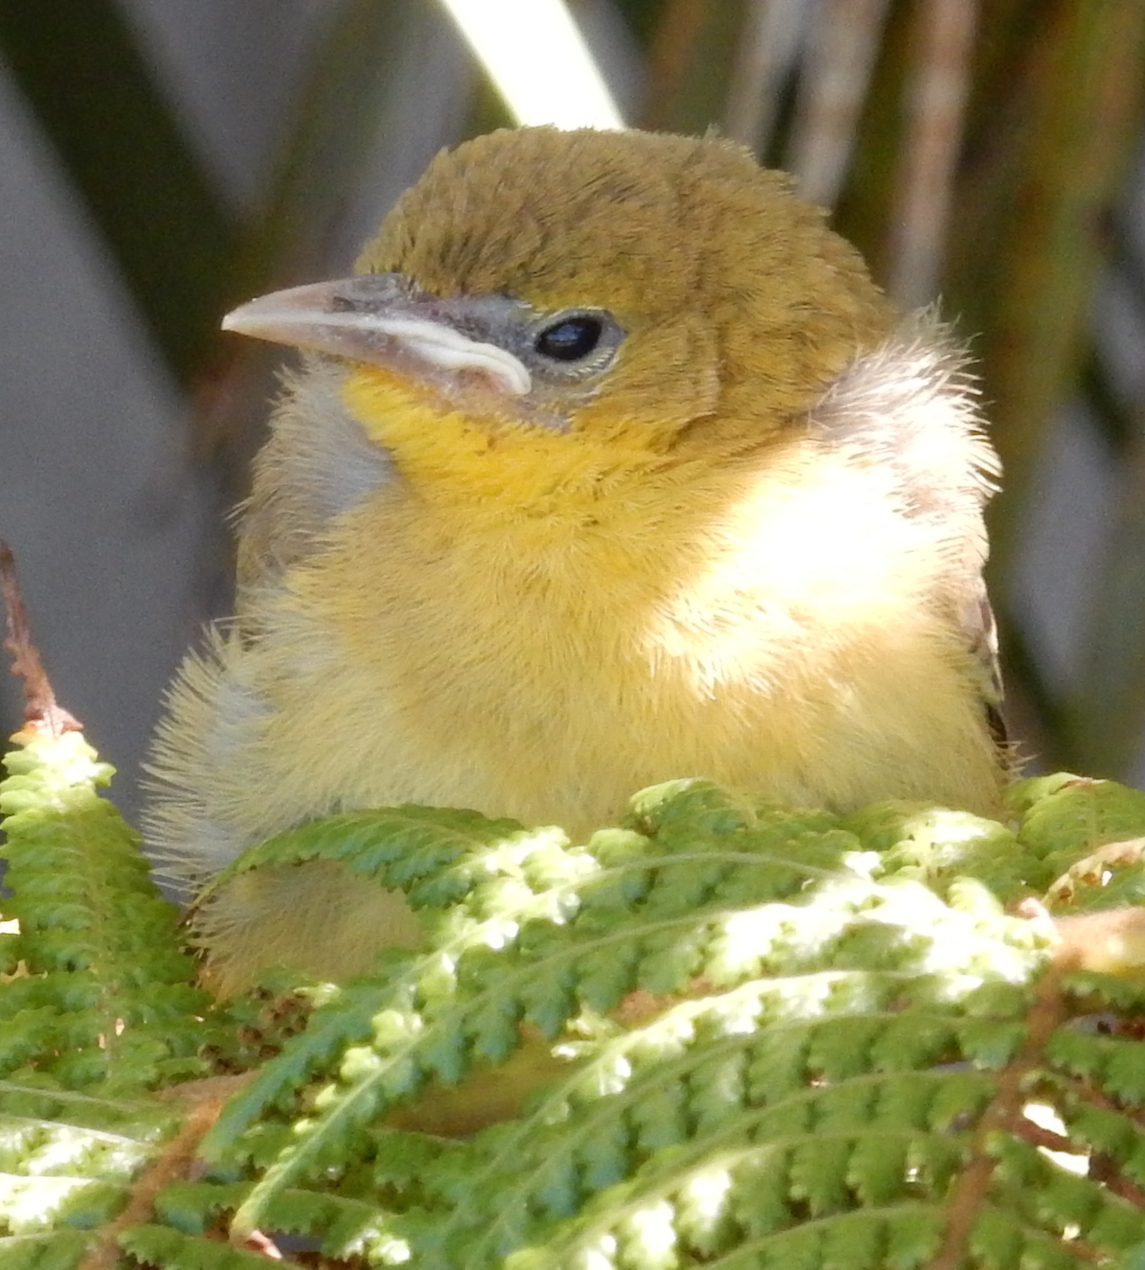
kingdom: Animalia
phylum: Chordata
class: Aves
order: Passeriformes
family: Icteridae
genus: Icterus
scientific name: Icterus cucullatus
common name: Hooded oriole
